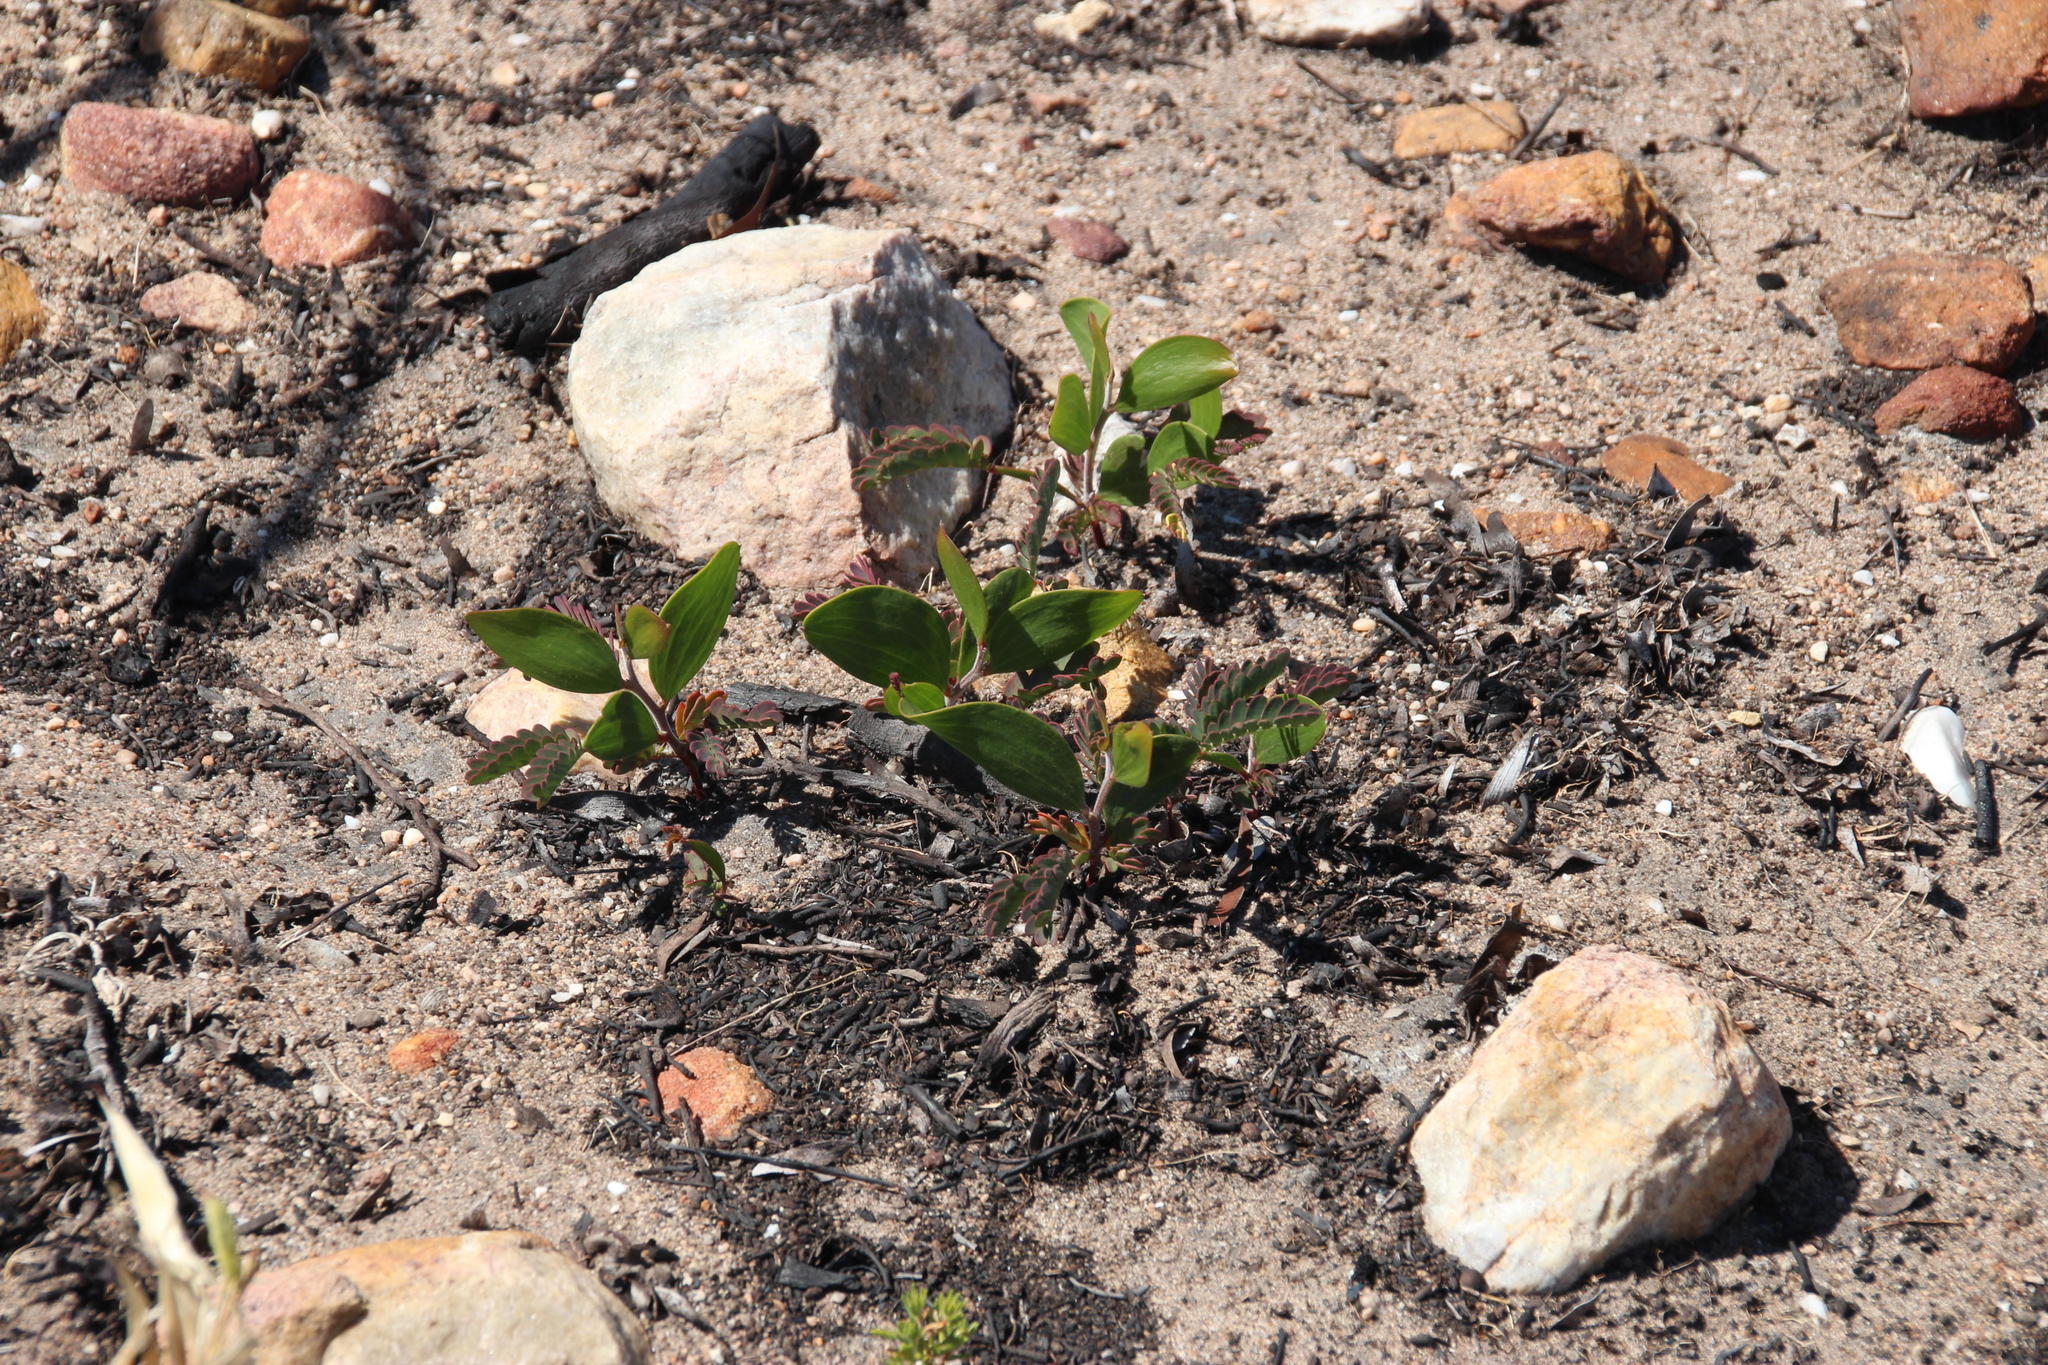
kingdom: Plantae
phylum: Tracheophyta
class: Magnoliopsida
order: Fabales
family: Fabaceae
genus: Acacia
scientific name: Acacia cyclops
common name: Coastal wattle
